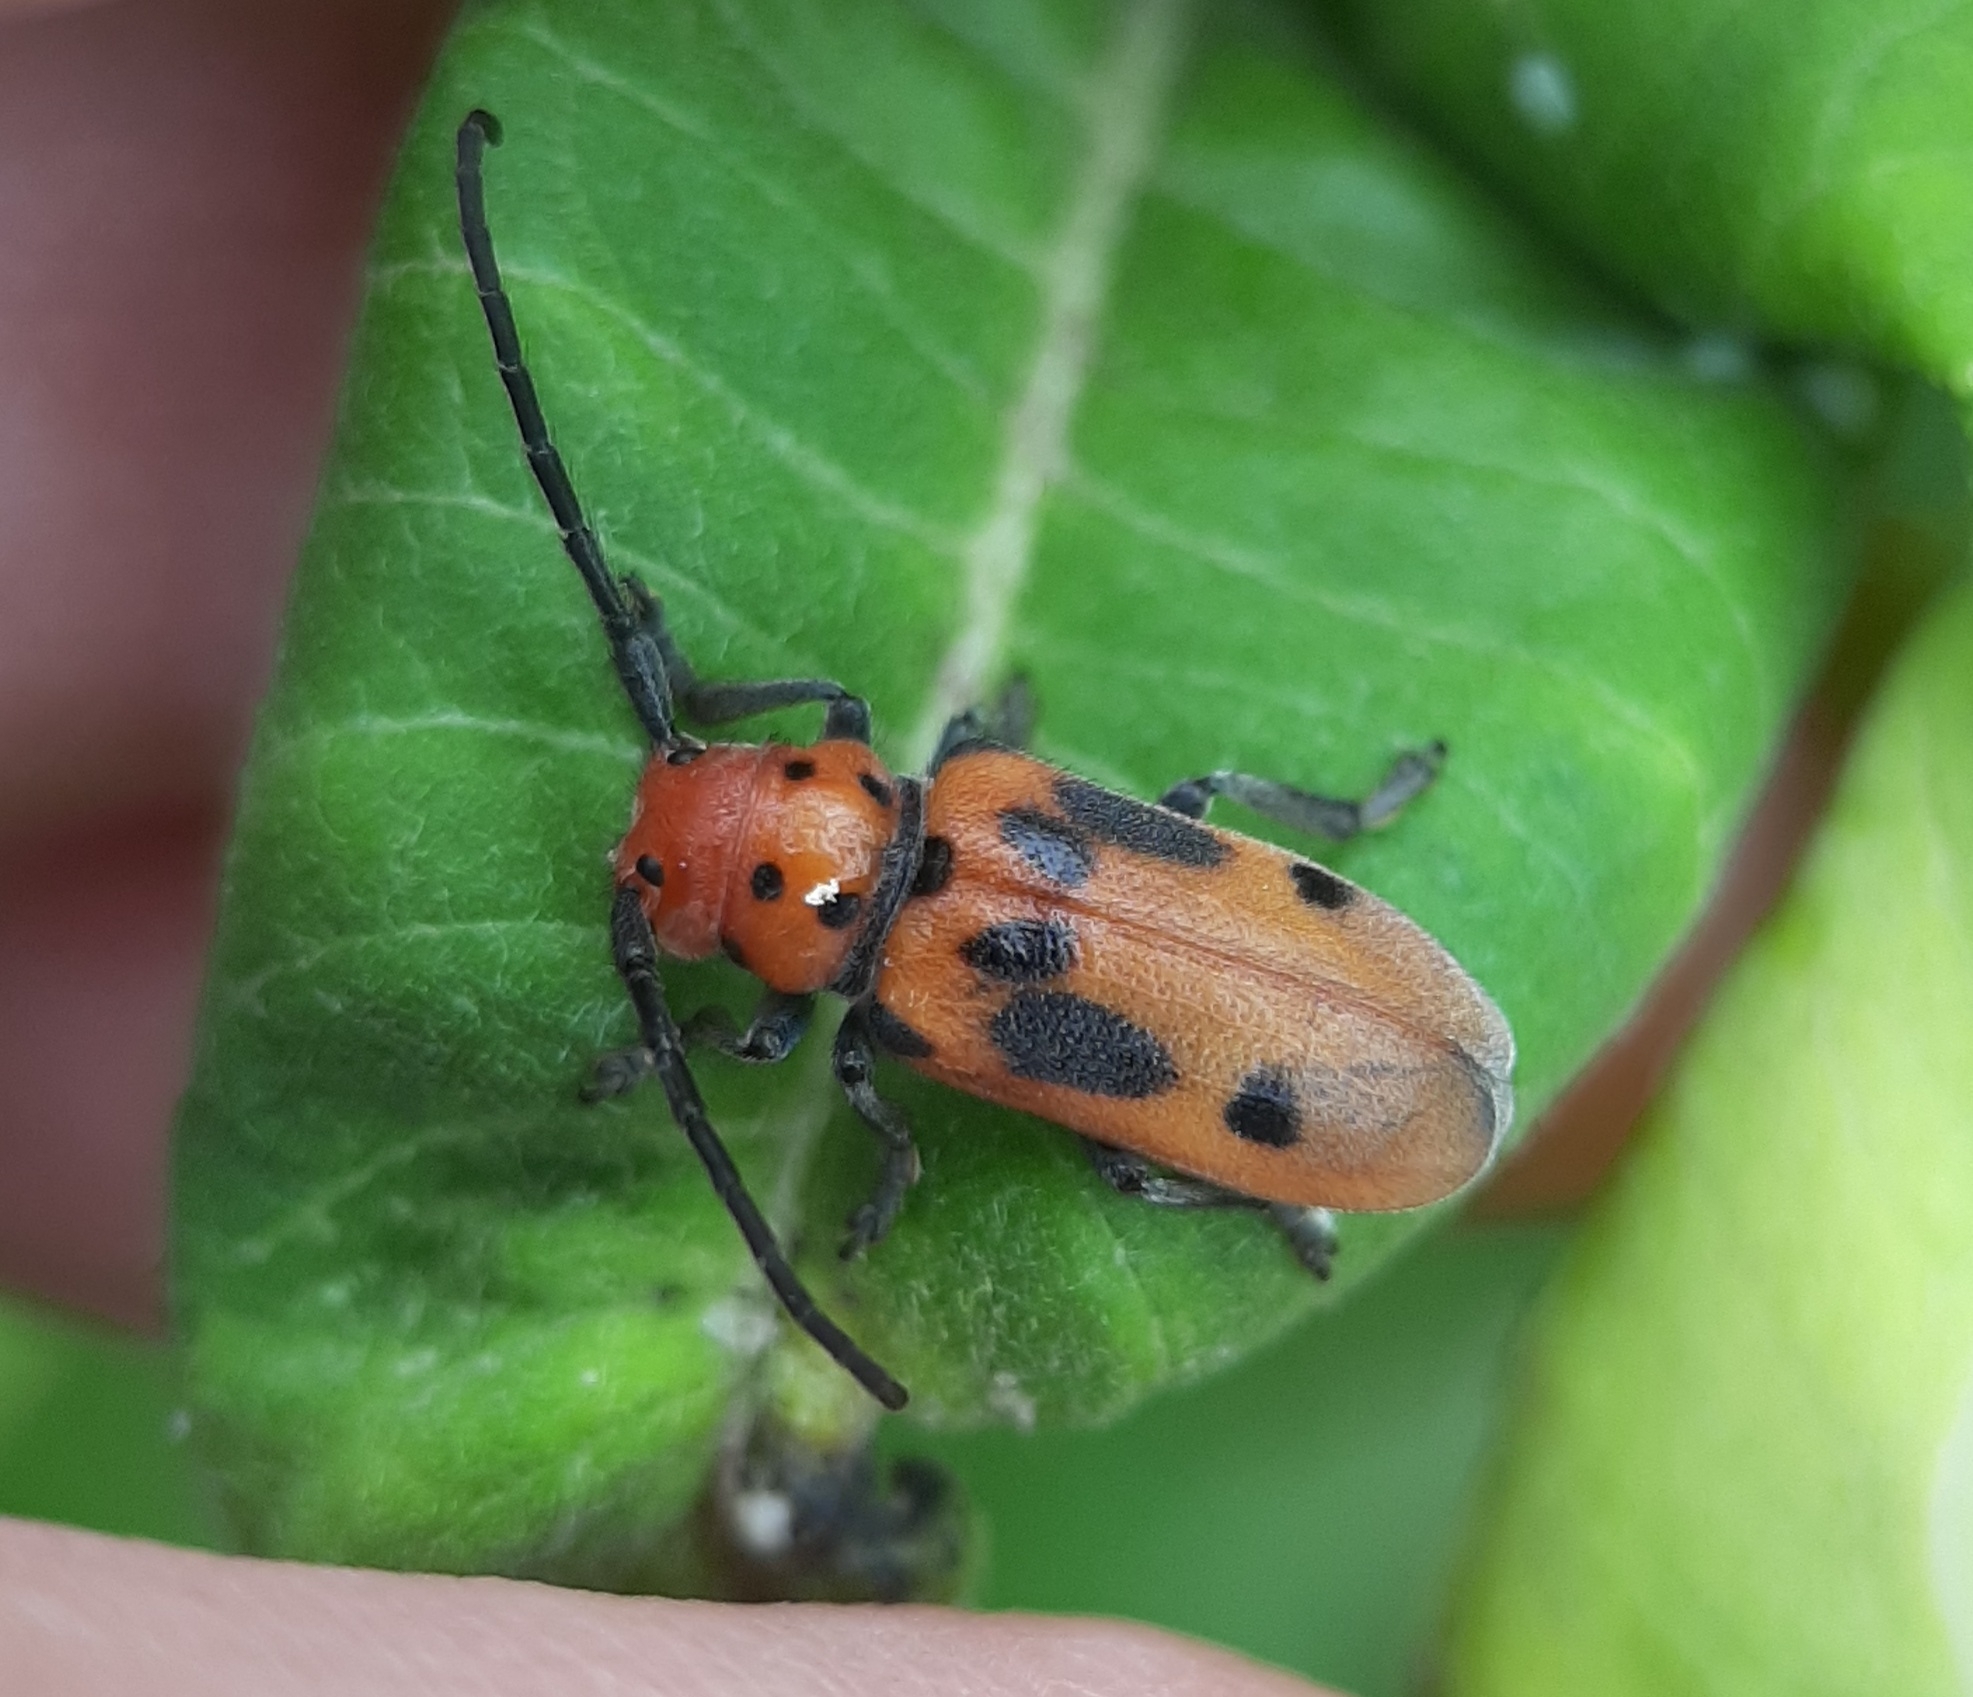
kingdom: Animalia
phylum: Arthropoda
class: Insecta
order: Coleoptera
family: Cerambycidae
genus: Tetraopes
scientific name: Tetraopes tetrophthalmus
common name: Red milkweed beetle
